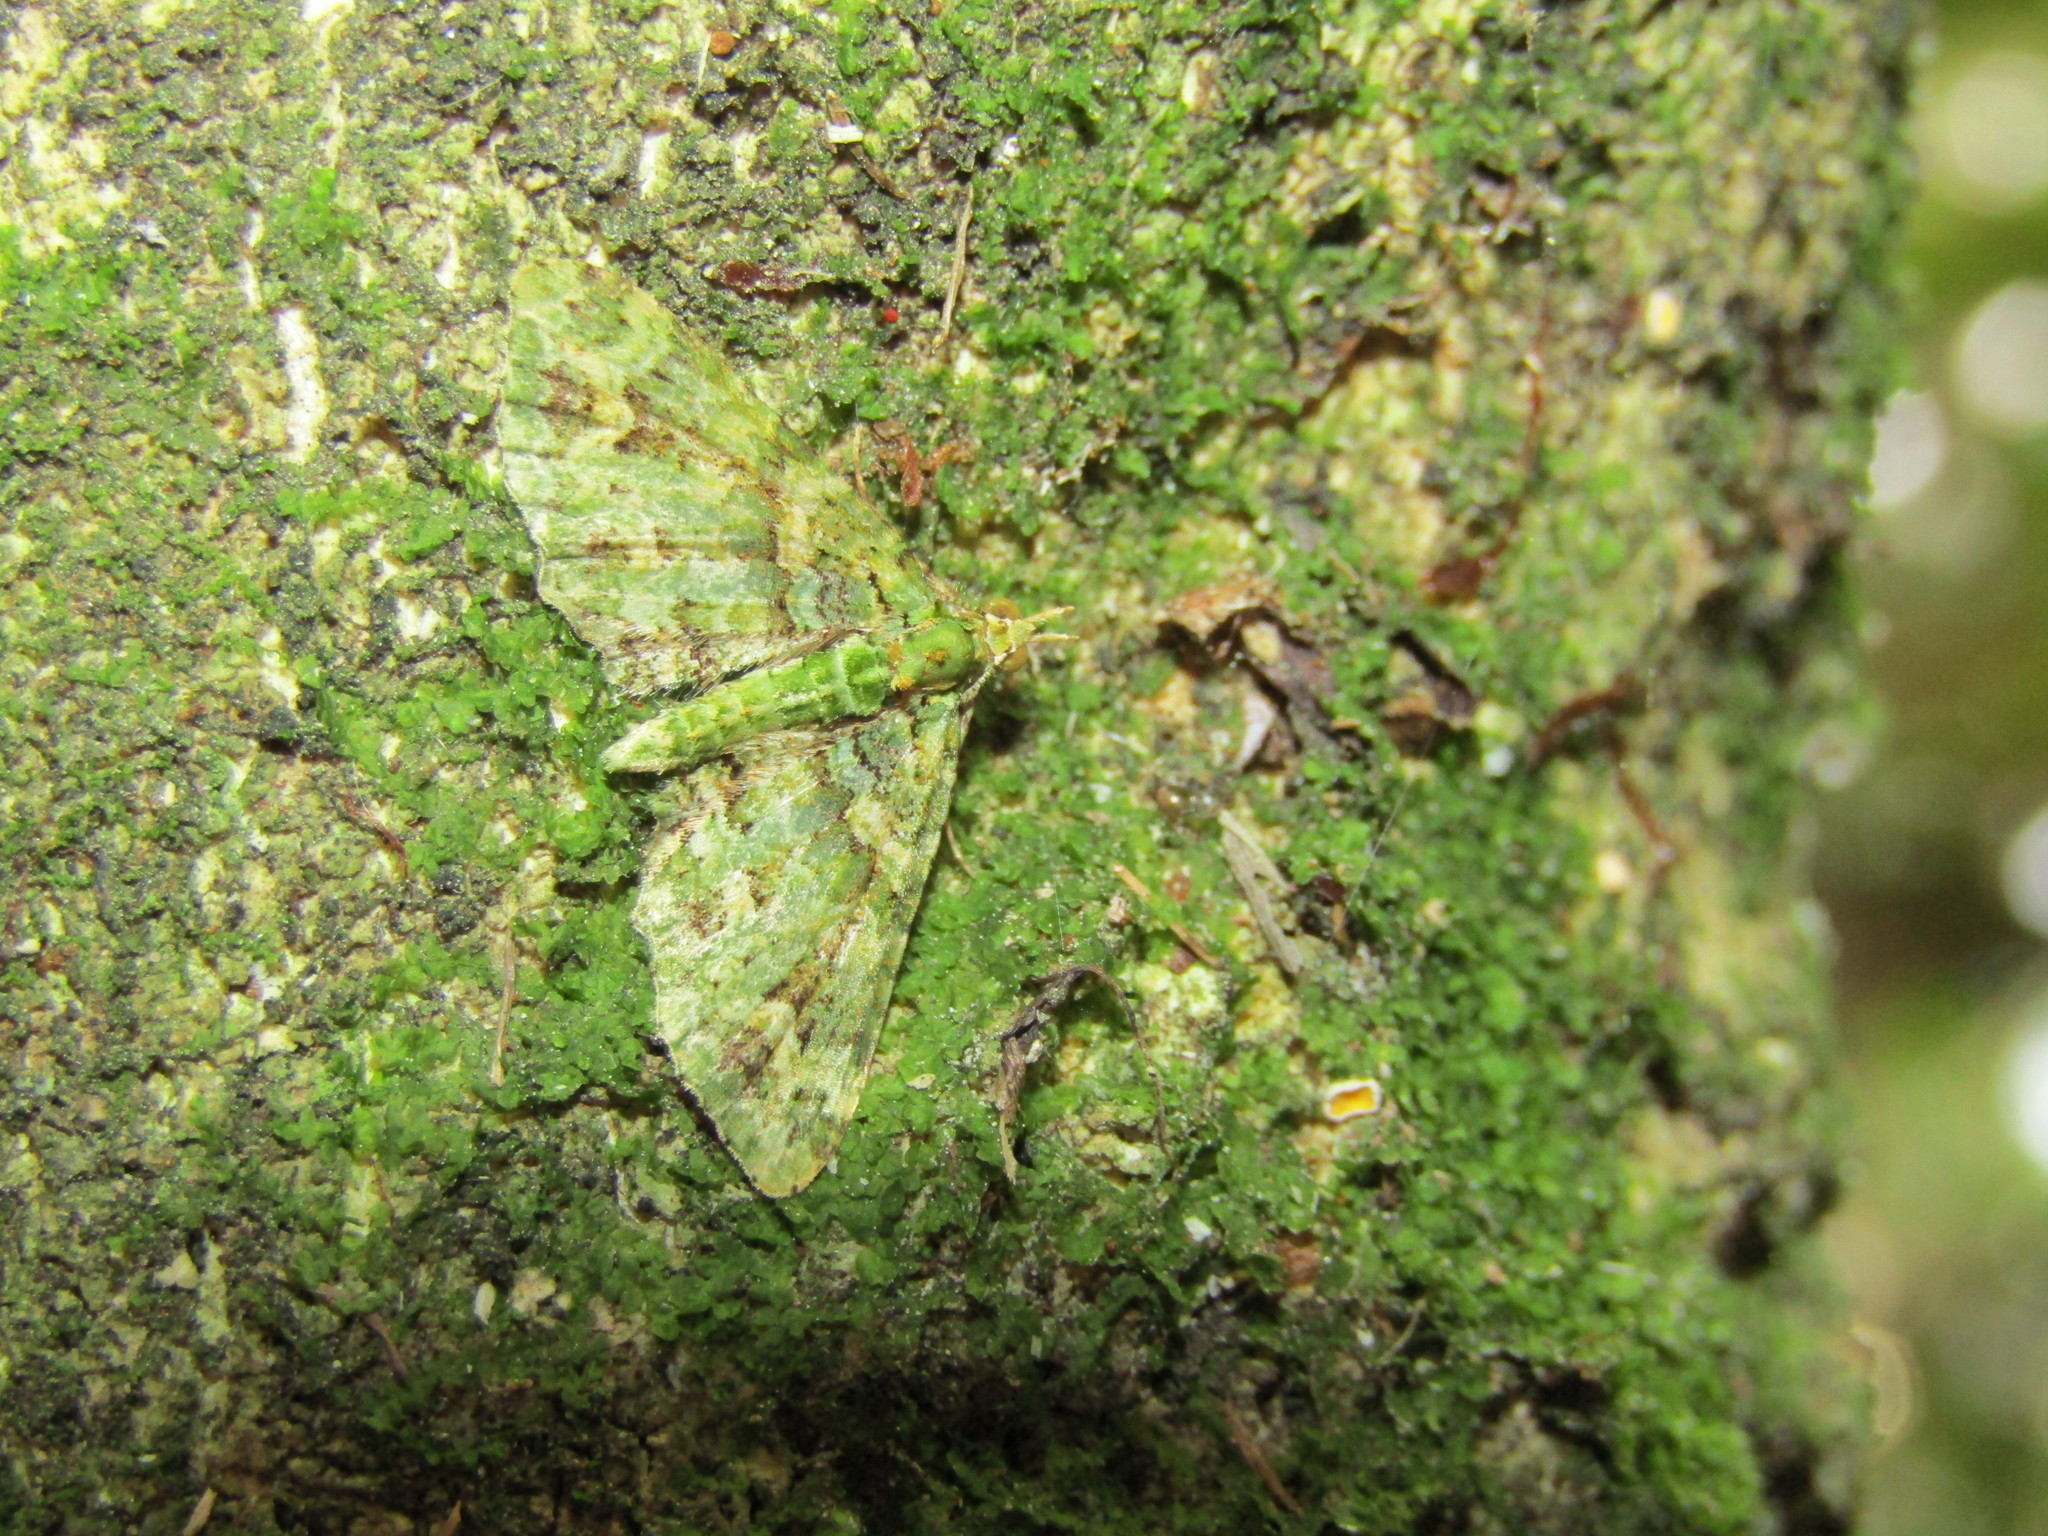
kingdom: Animalia
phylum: Arthropoda
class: Insecta
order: Lepidoptera
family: Geometridae
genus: Pasiphila
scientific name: Pasiphila muscosata
